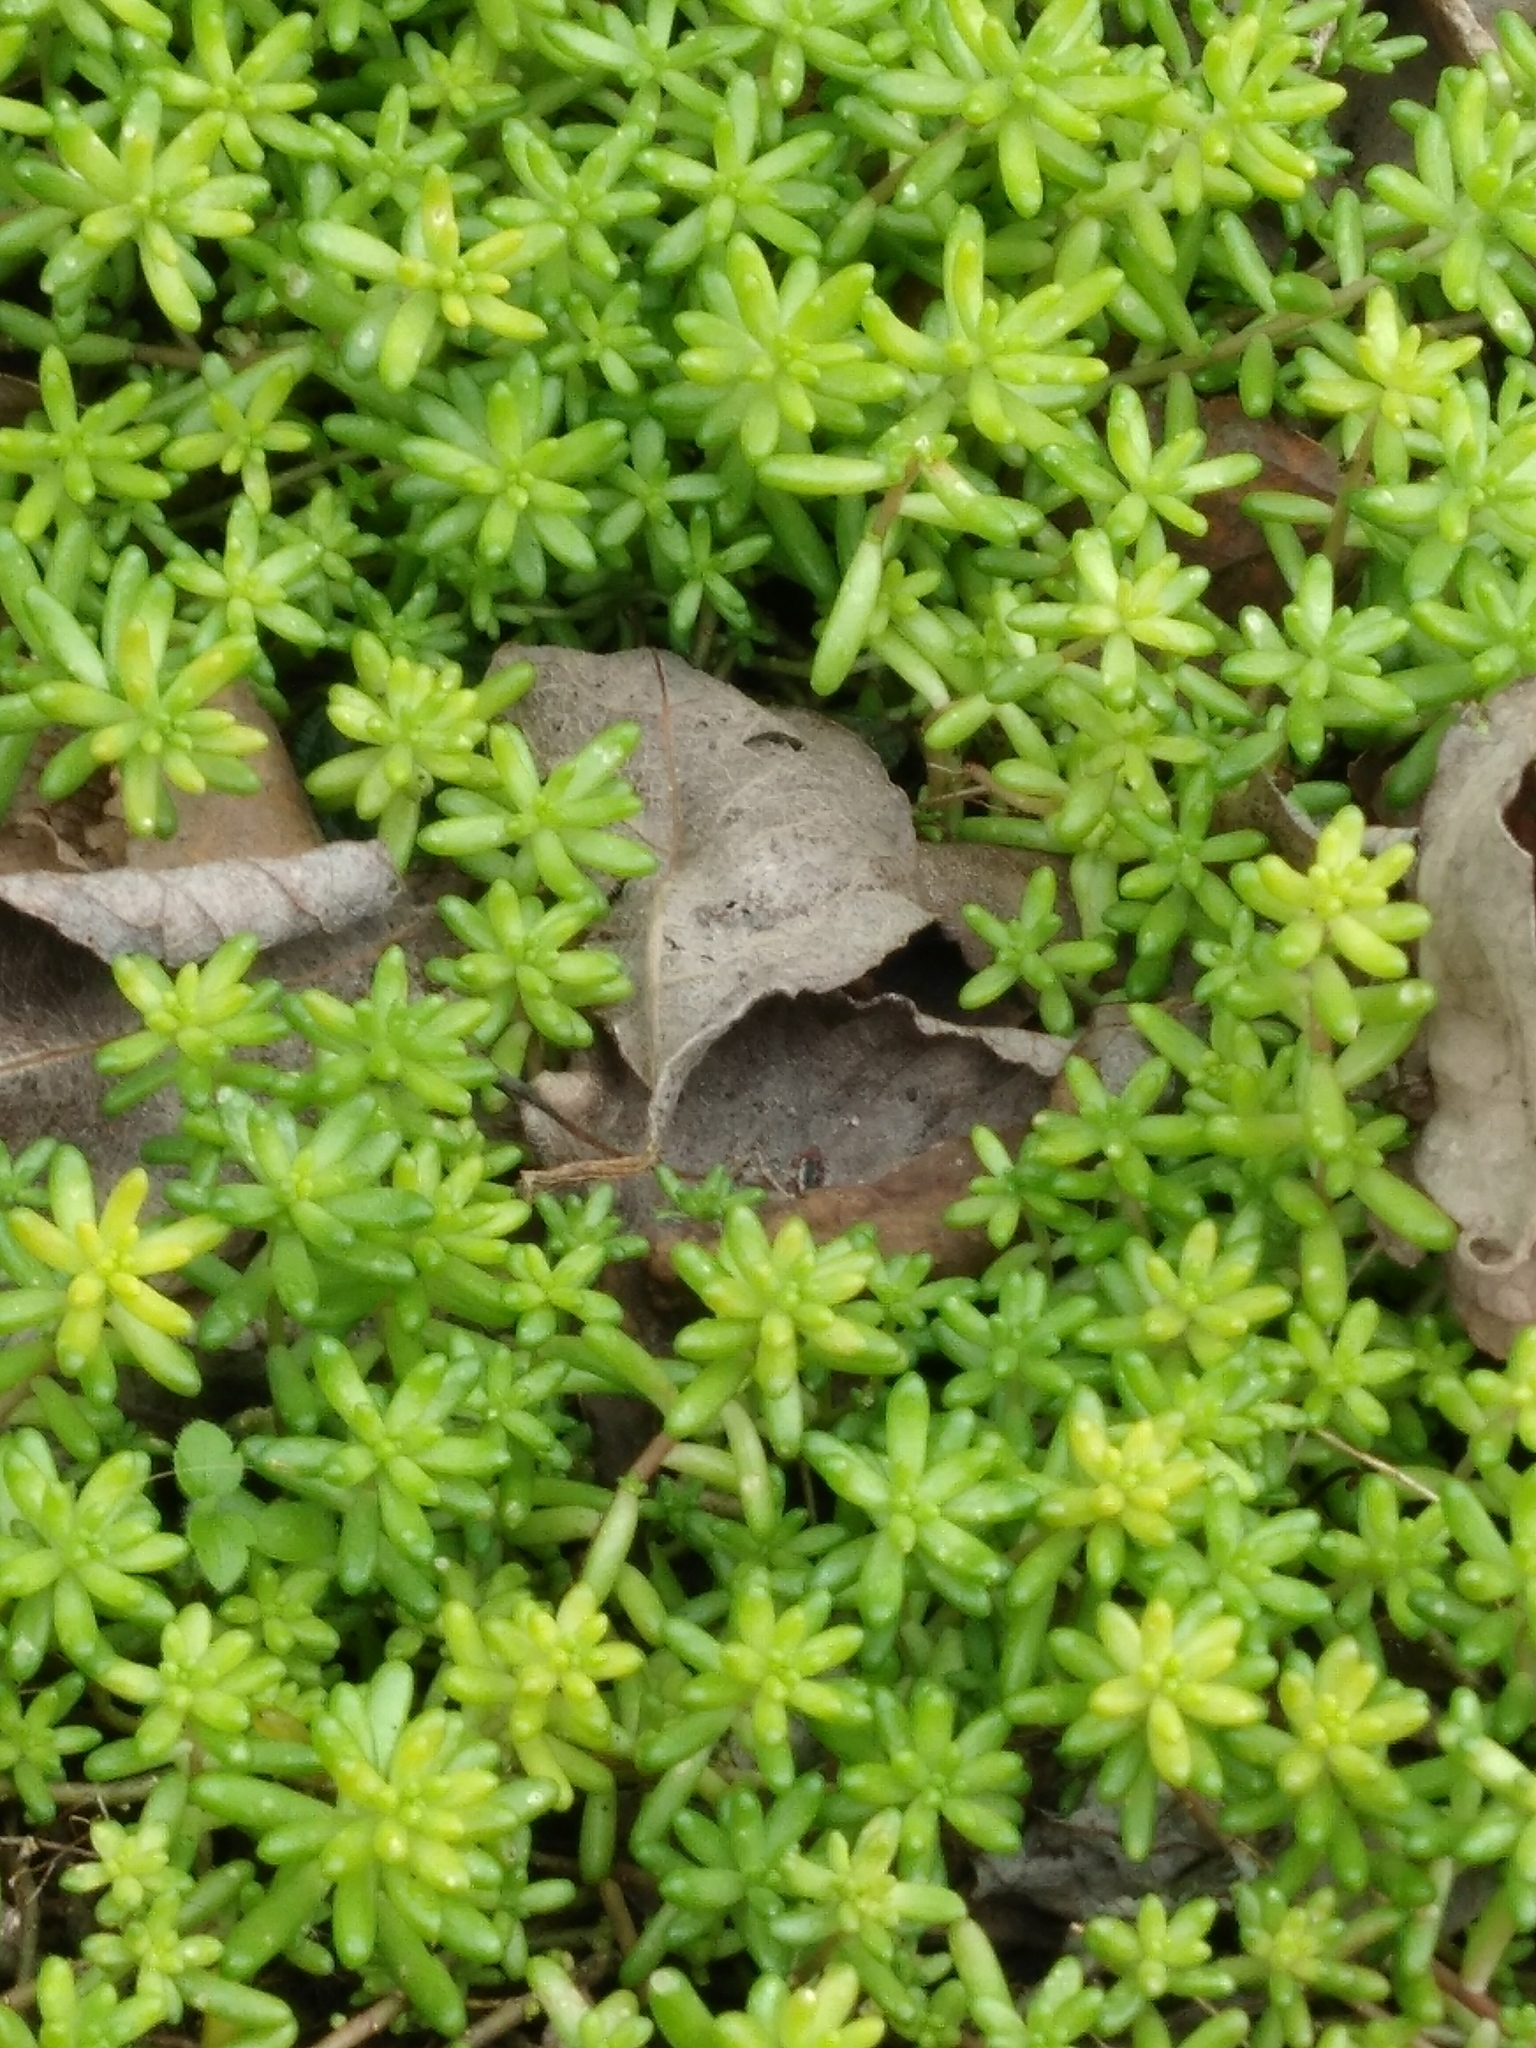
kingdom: Plantae
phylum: Tracheophyta
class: Magnoliopsida
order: Saxifragales
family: Crassulaceae
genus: Sedum
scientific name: Sedum album
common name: White stonecrop
